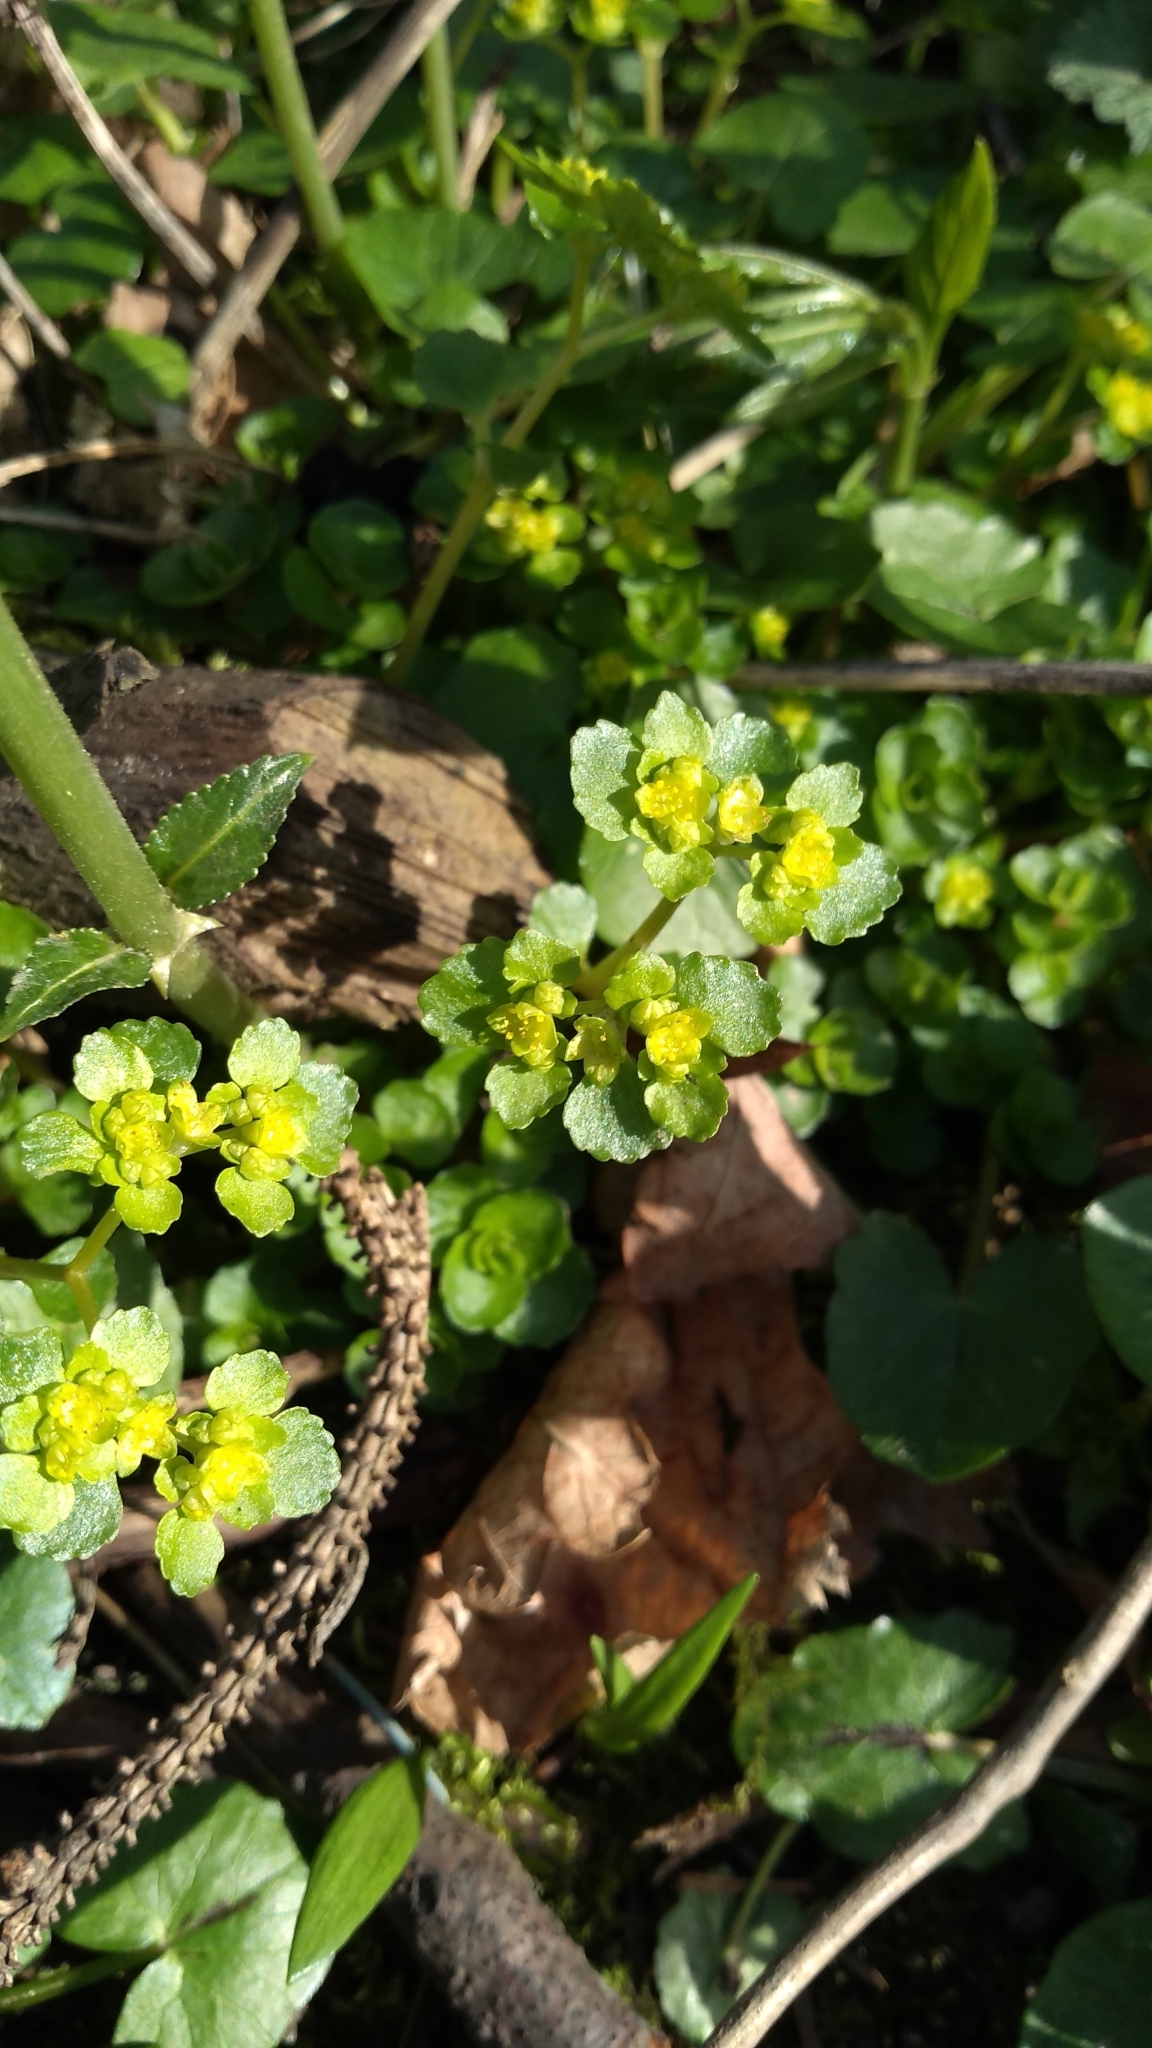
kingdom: Plantae
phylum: Tracheophyta
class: Magnoliopsida
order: Saxifragales
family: Saxifragaceae
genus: Chrysosplenium
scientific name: Chrysosplenium oppositifolium
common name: Opposite-leaved golden-saxifrage
